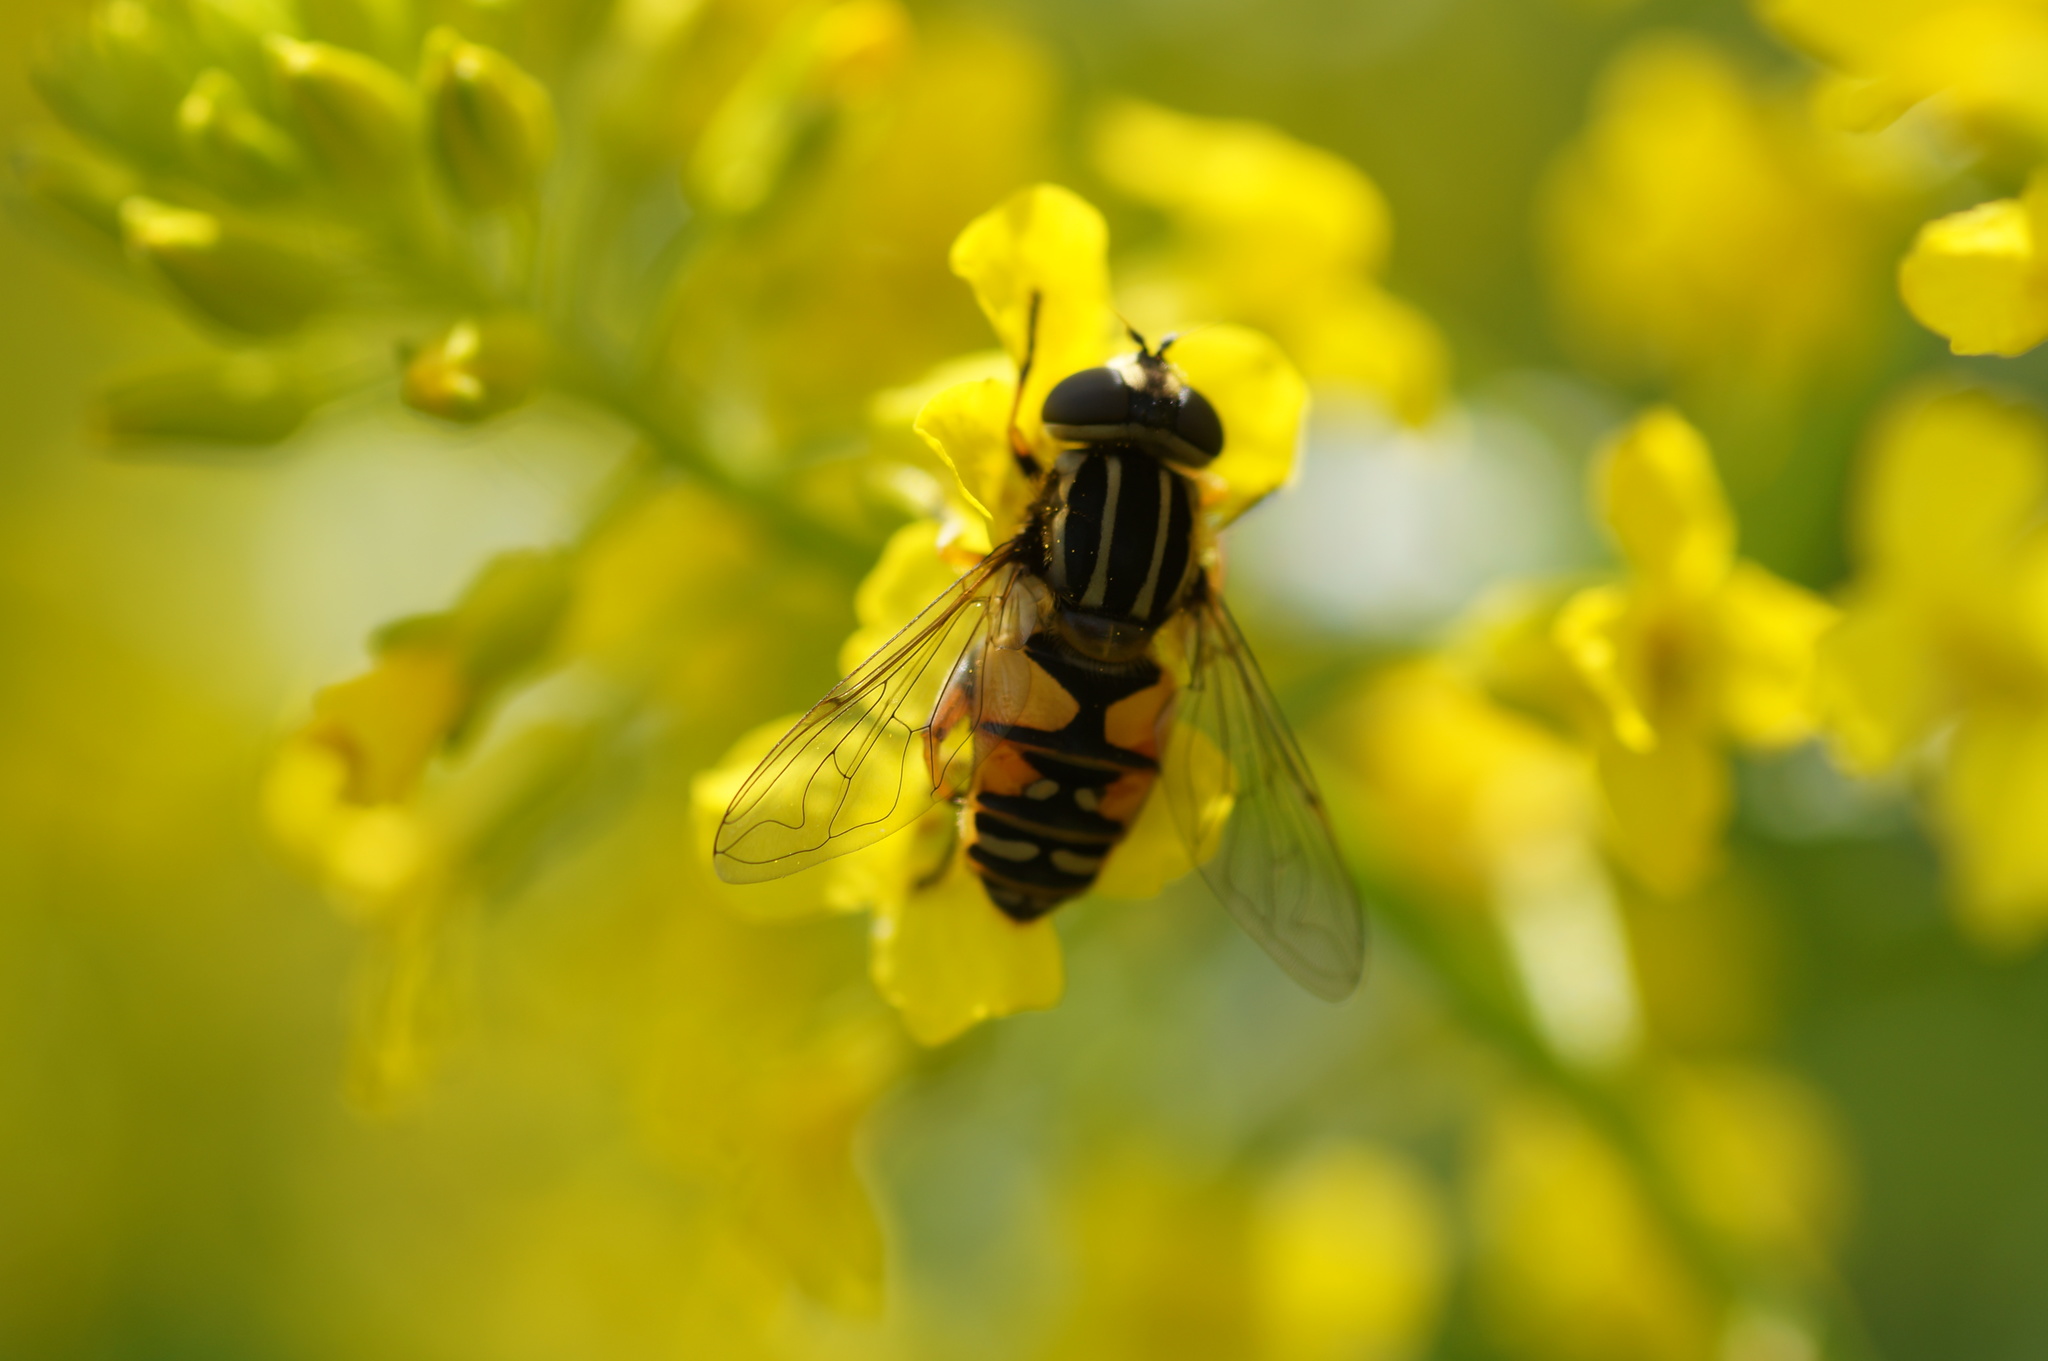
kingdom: Animalia
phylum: Arthropoda
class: Insecta
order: Diptera
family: Syrphidae
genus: Helophilus
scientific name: Helophilus pendulus
